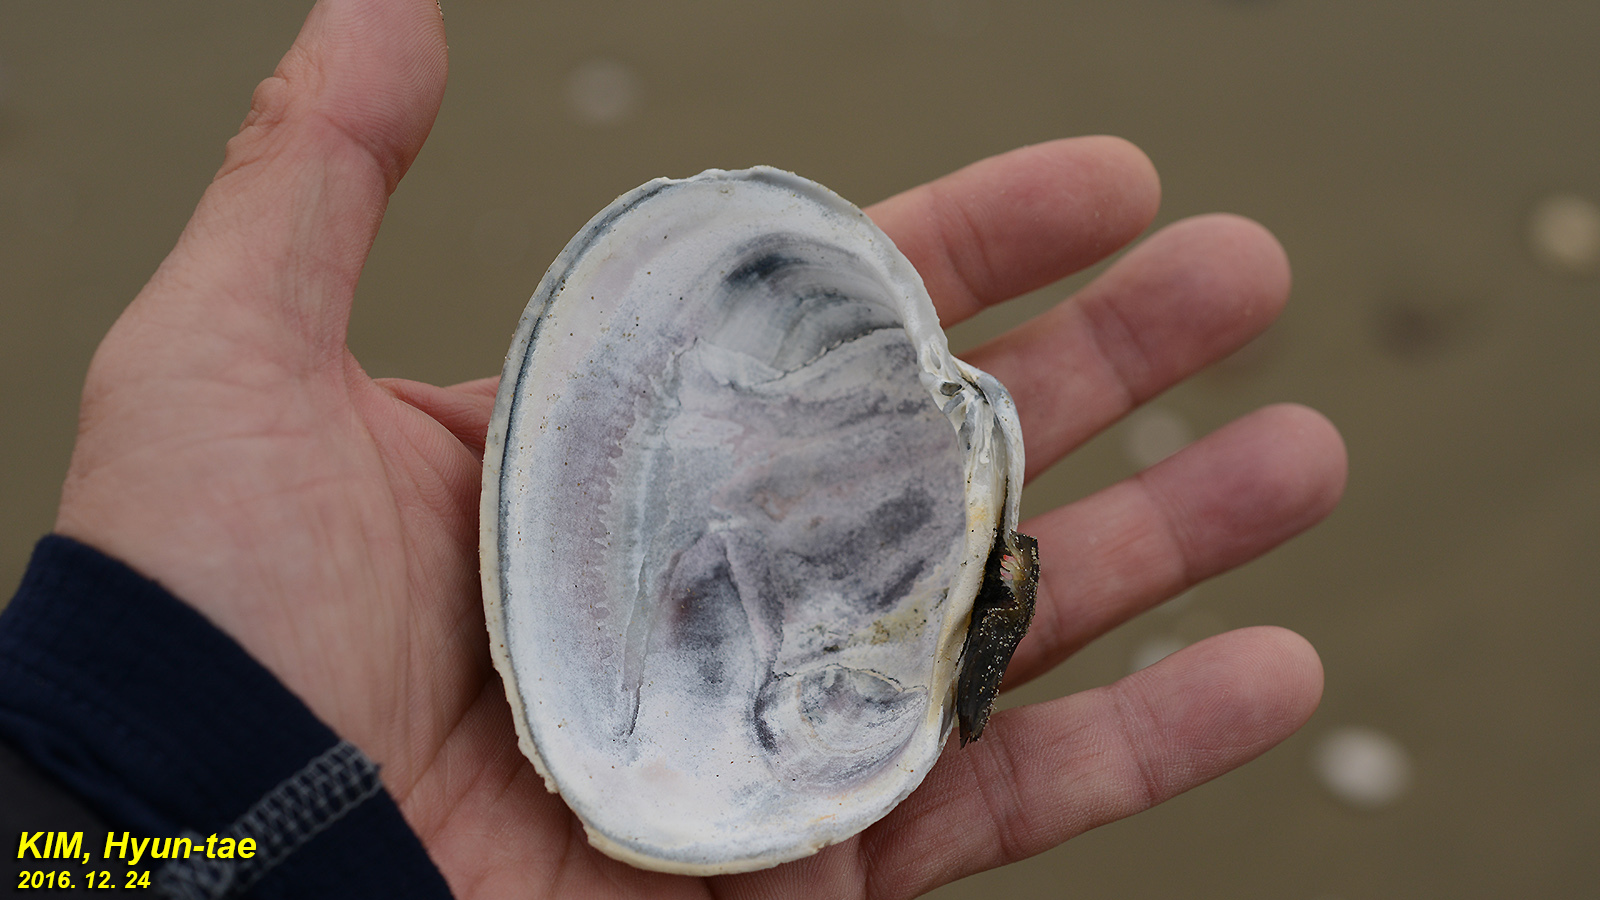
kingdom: Animalia
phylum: Mollusca
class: Bivalvia
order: Venerida
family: Veneridae
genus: Saxidomus
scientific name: Saxidomus purpurata
